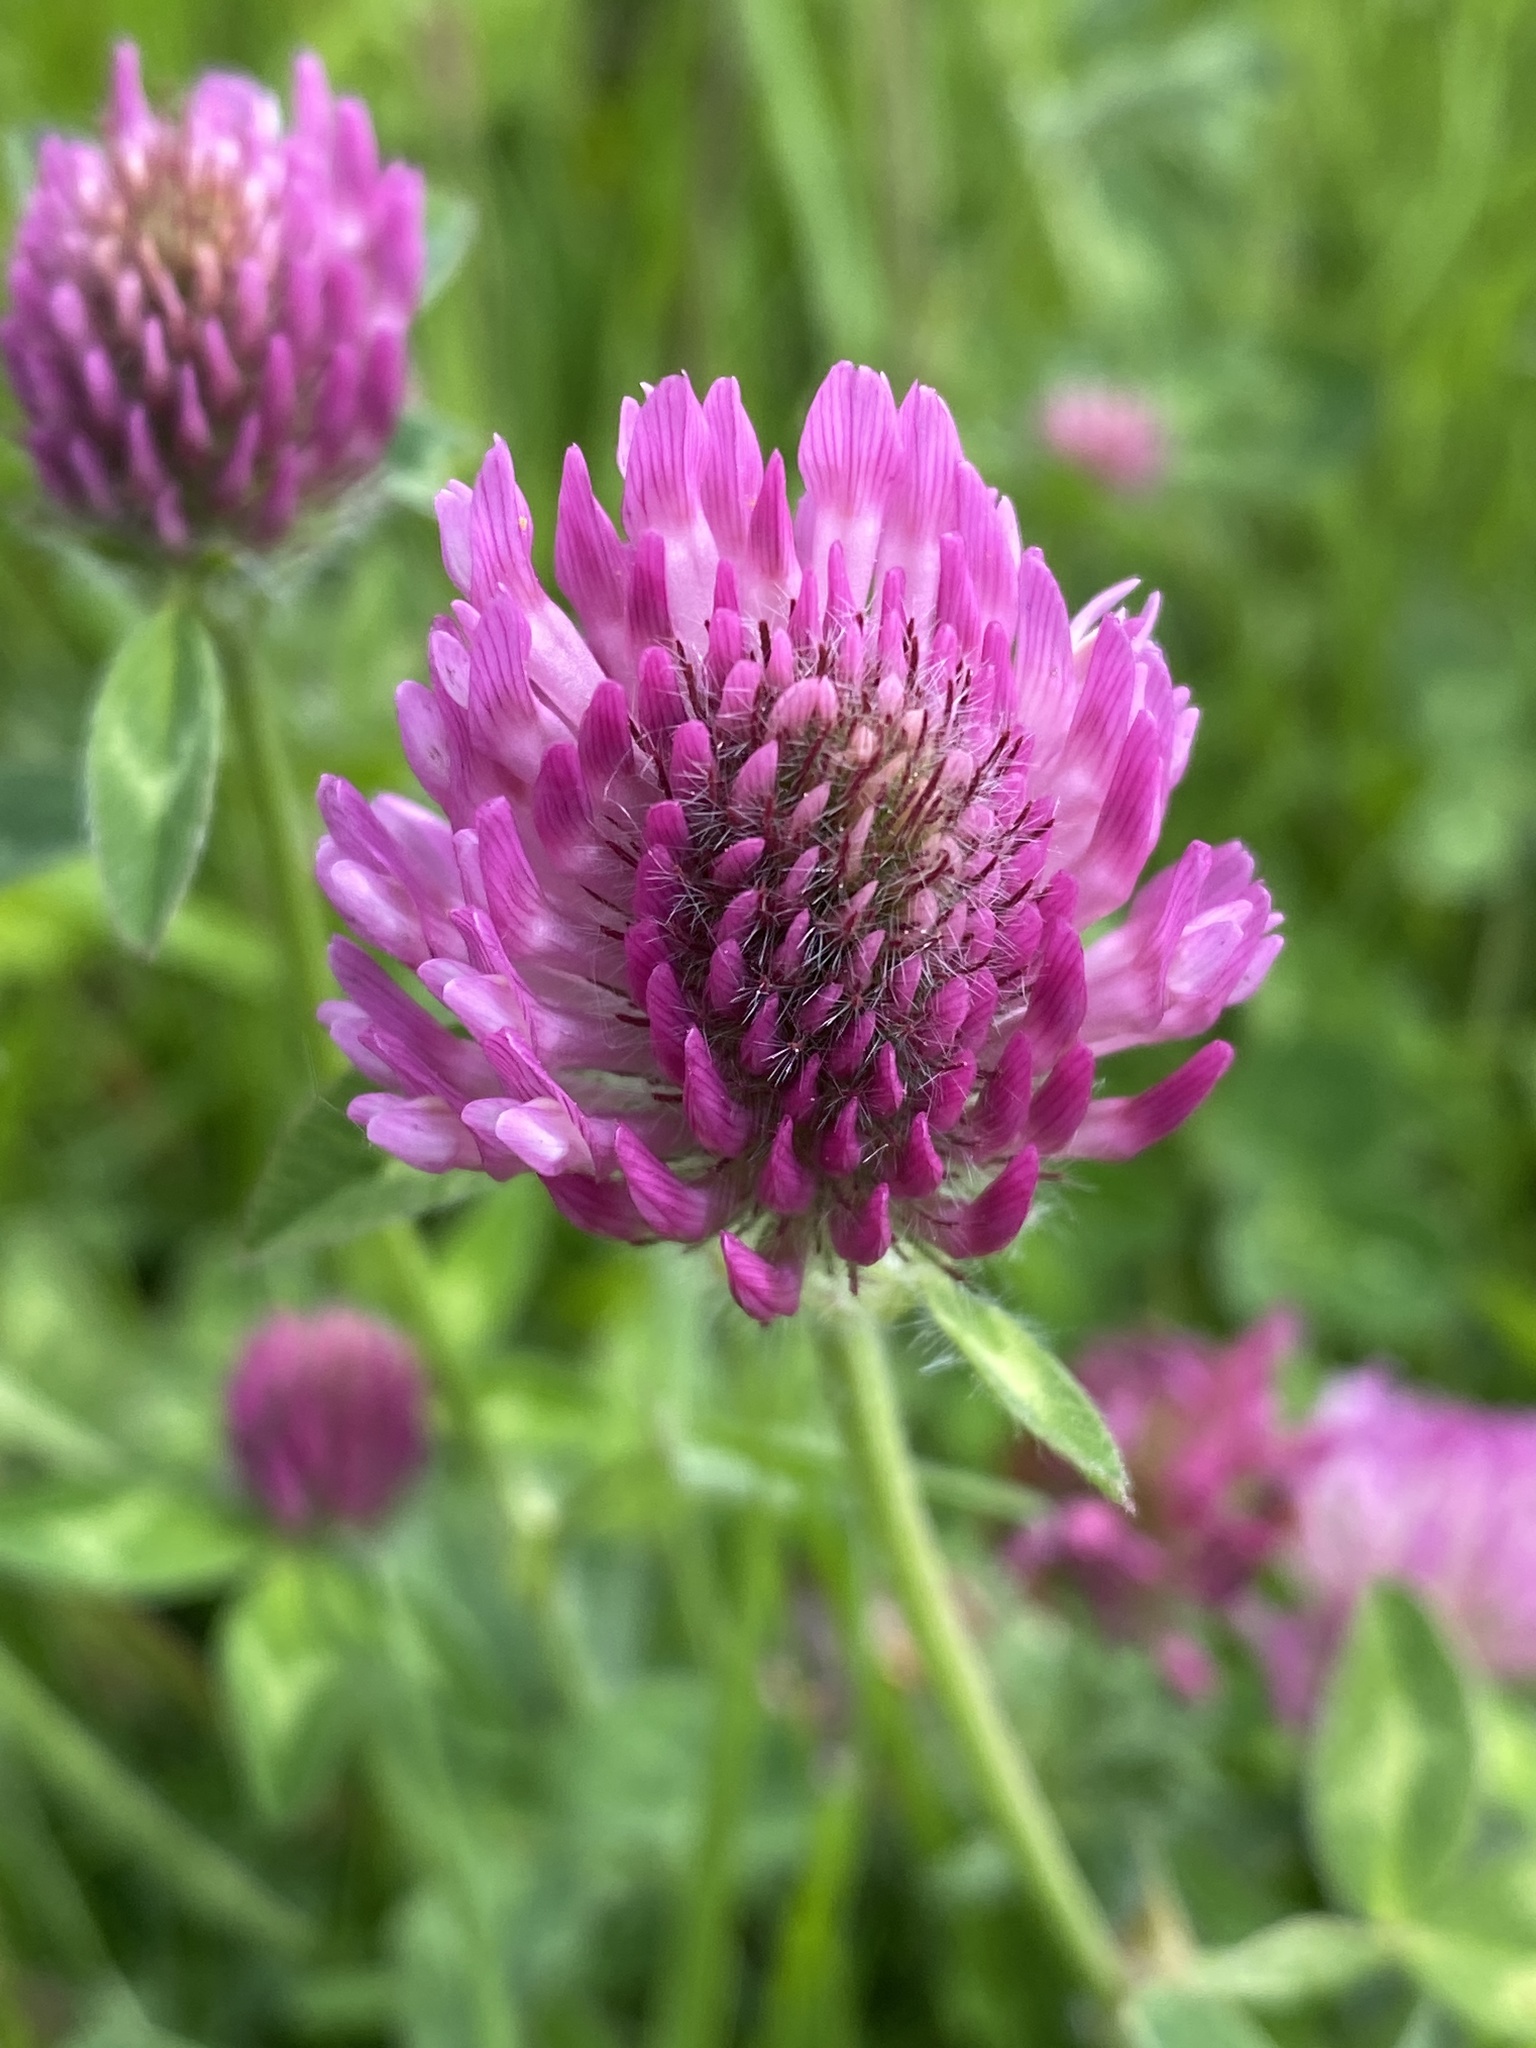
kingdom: Plantae
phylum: Tracheophyta
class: Magnoliopsida
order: Fabales
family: Fabaceae
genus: Trifolium
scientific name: Trifolium pratense
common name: Red clover
